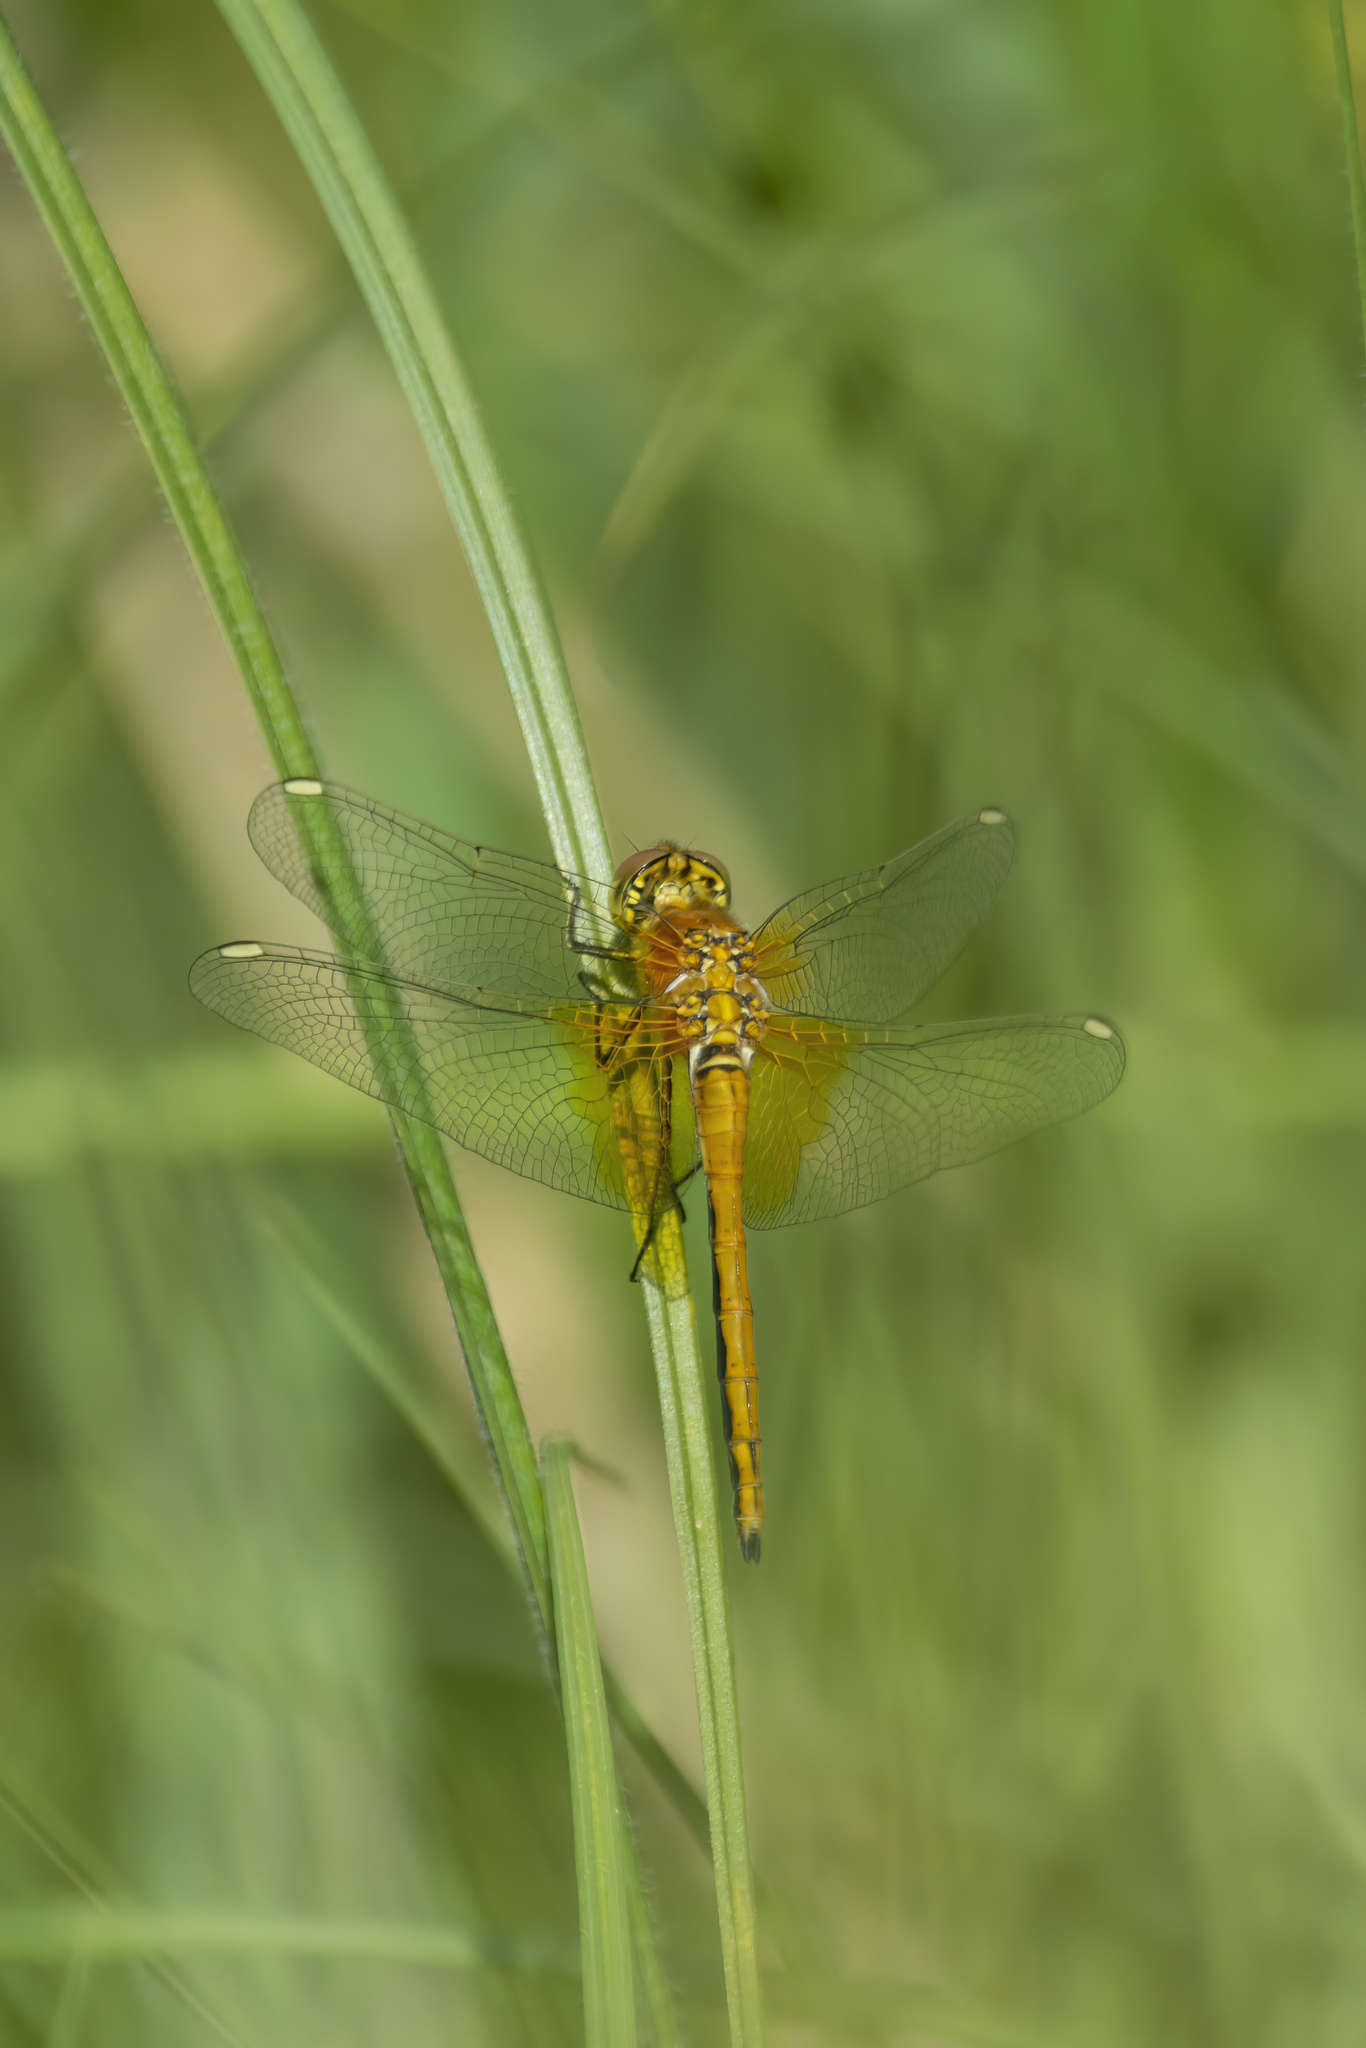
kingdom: Animalia
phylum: Arthropoda
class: Insecta
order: Odonata
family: Libellulidae
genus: Sympetrum
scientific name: Sympetrum flaveolum
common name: Yellow-winged darter
